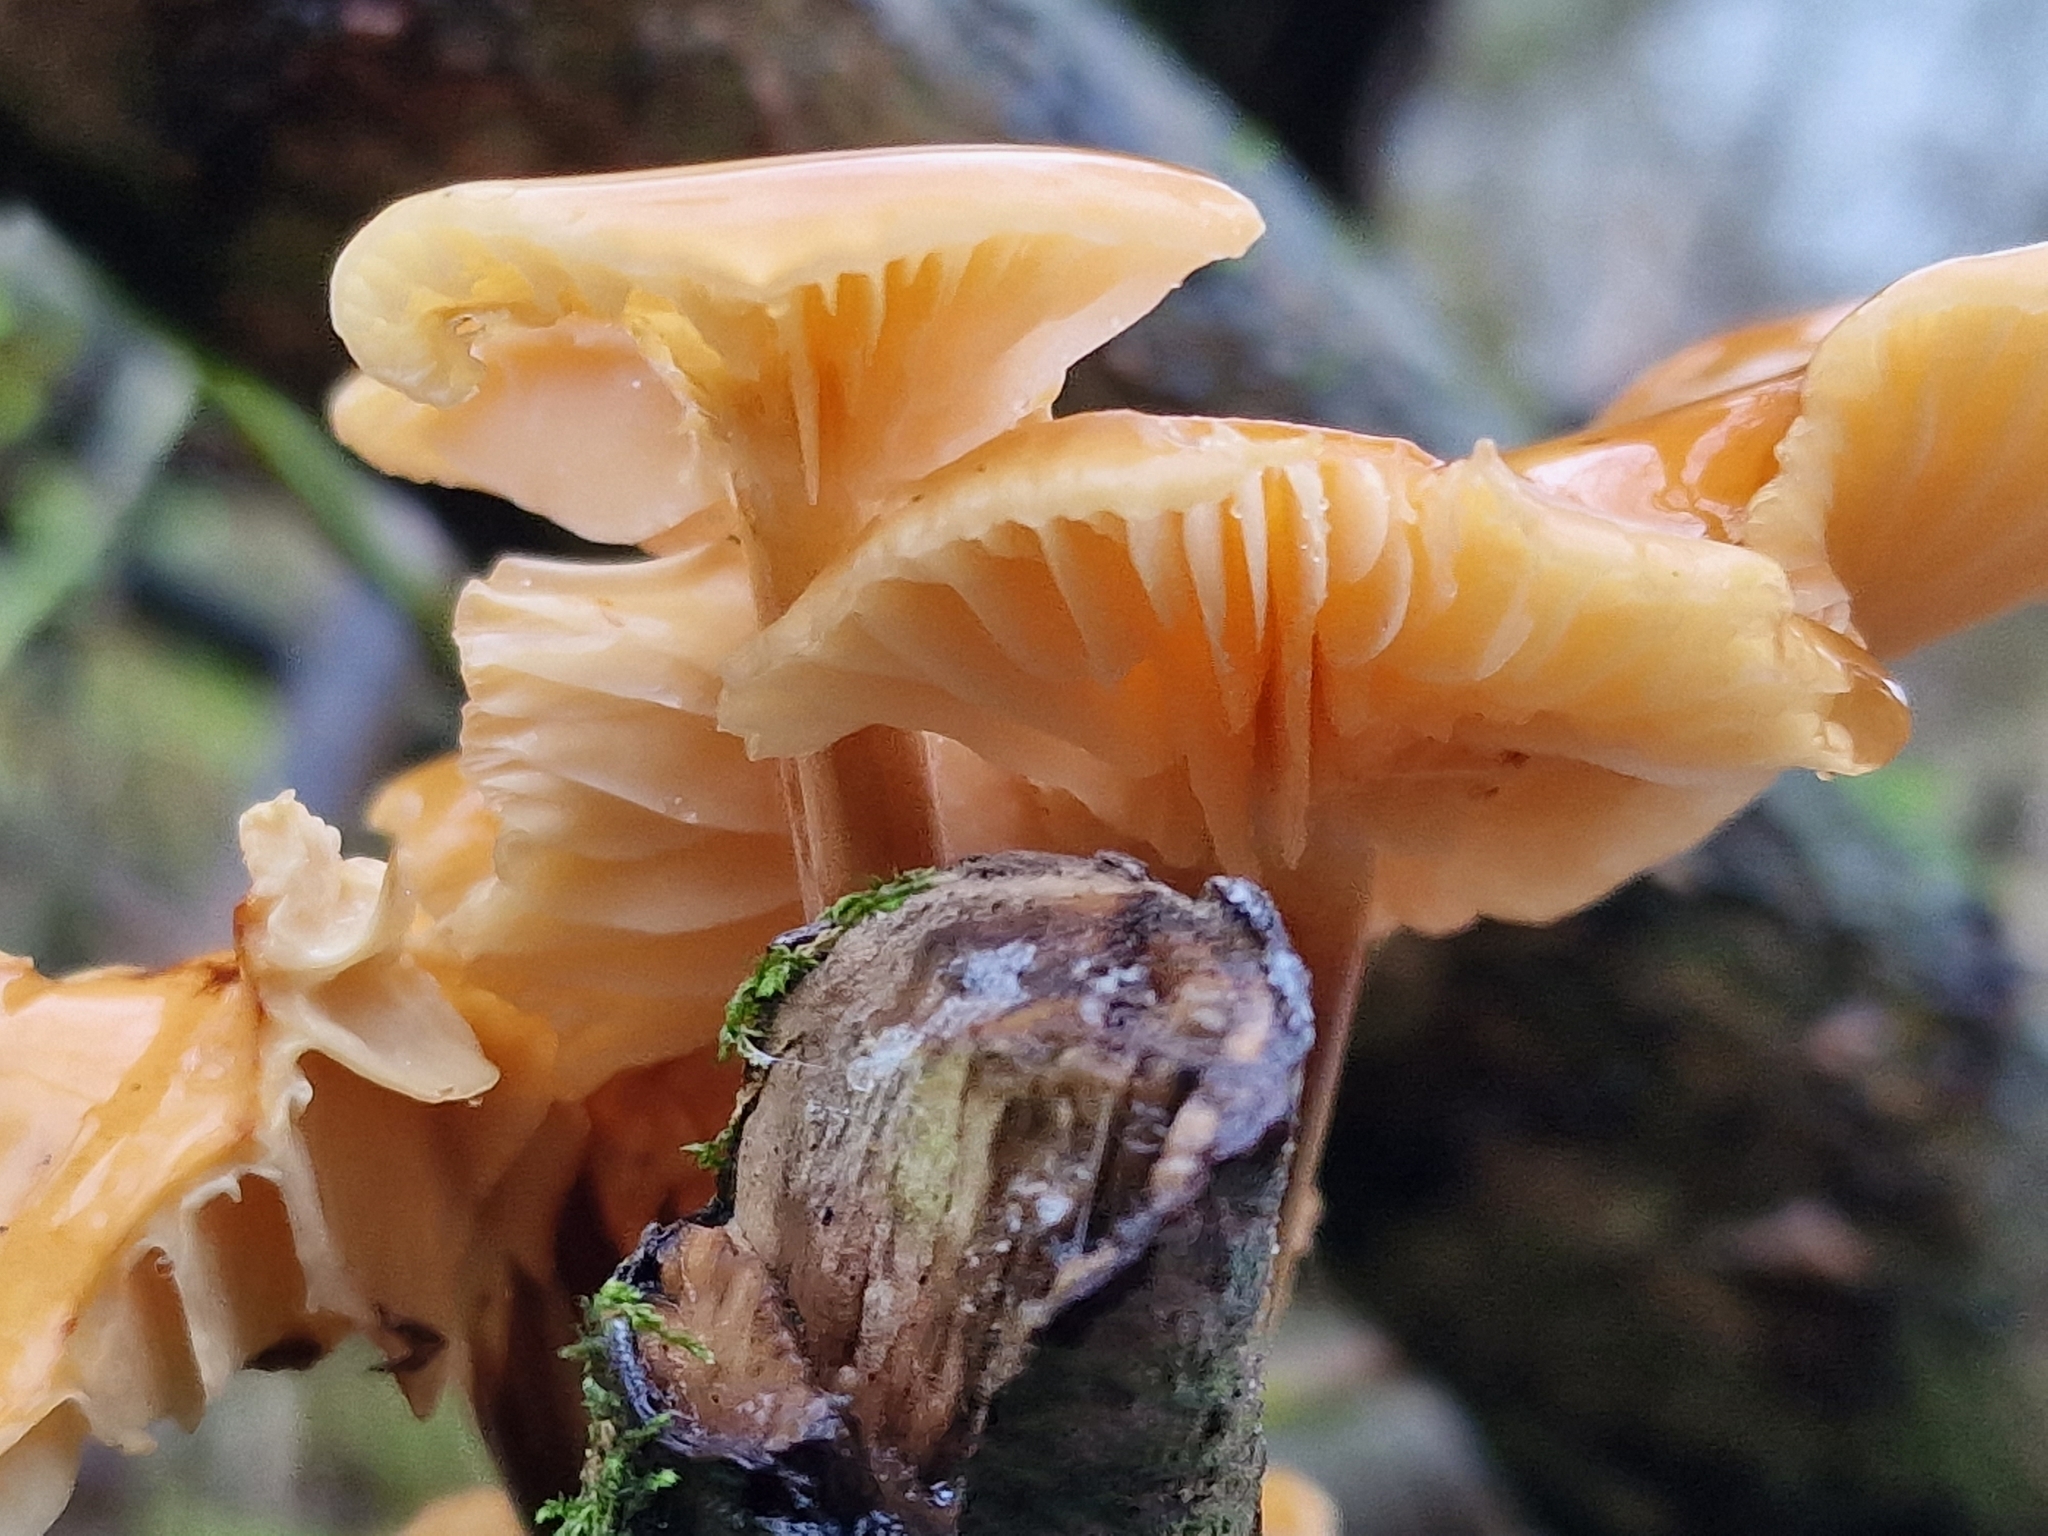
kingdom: Fungi
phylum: Basidiomycota
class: Agaricomycetes
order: Agaricales
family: Physalacriaceae
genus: Flammulina
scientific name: Flammulina
